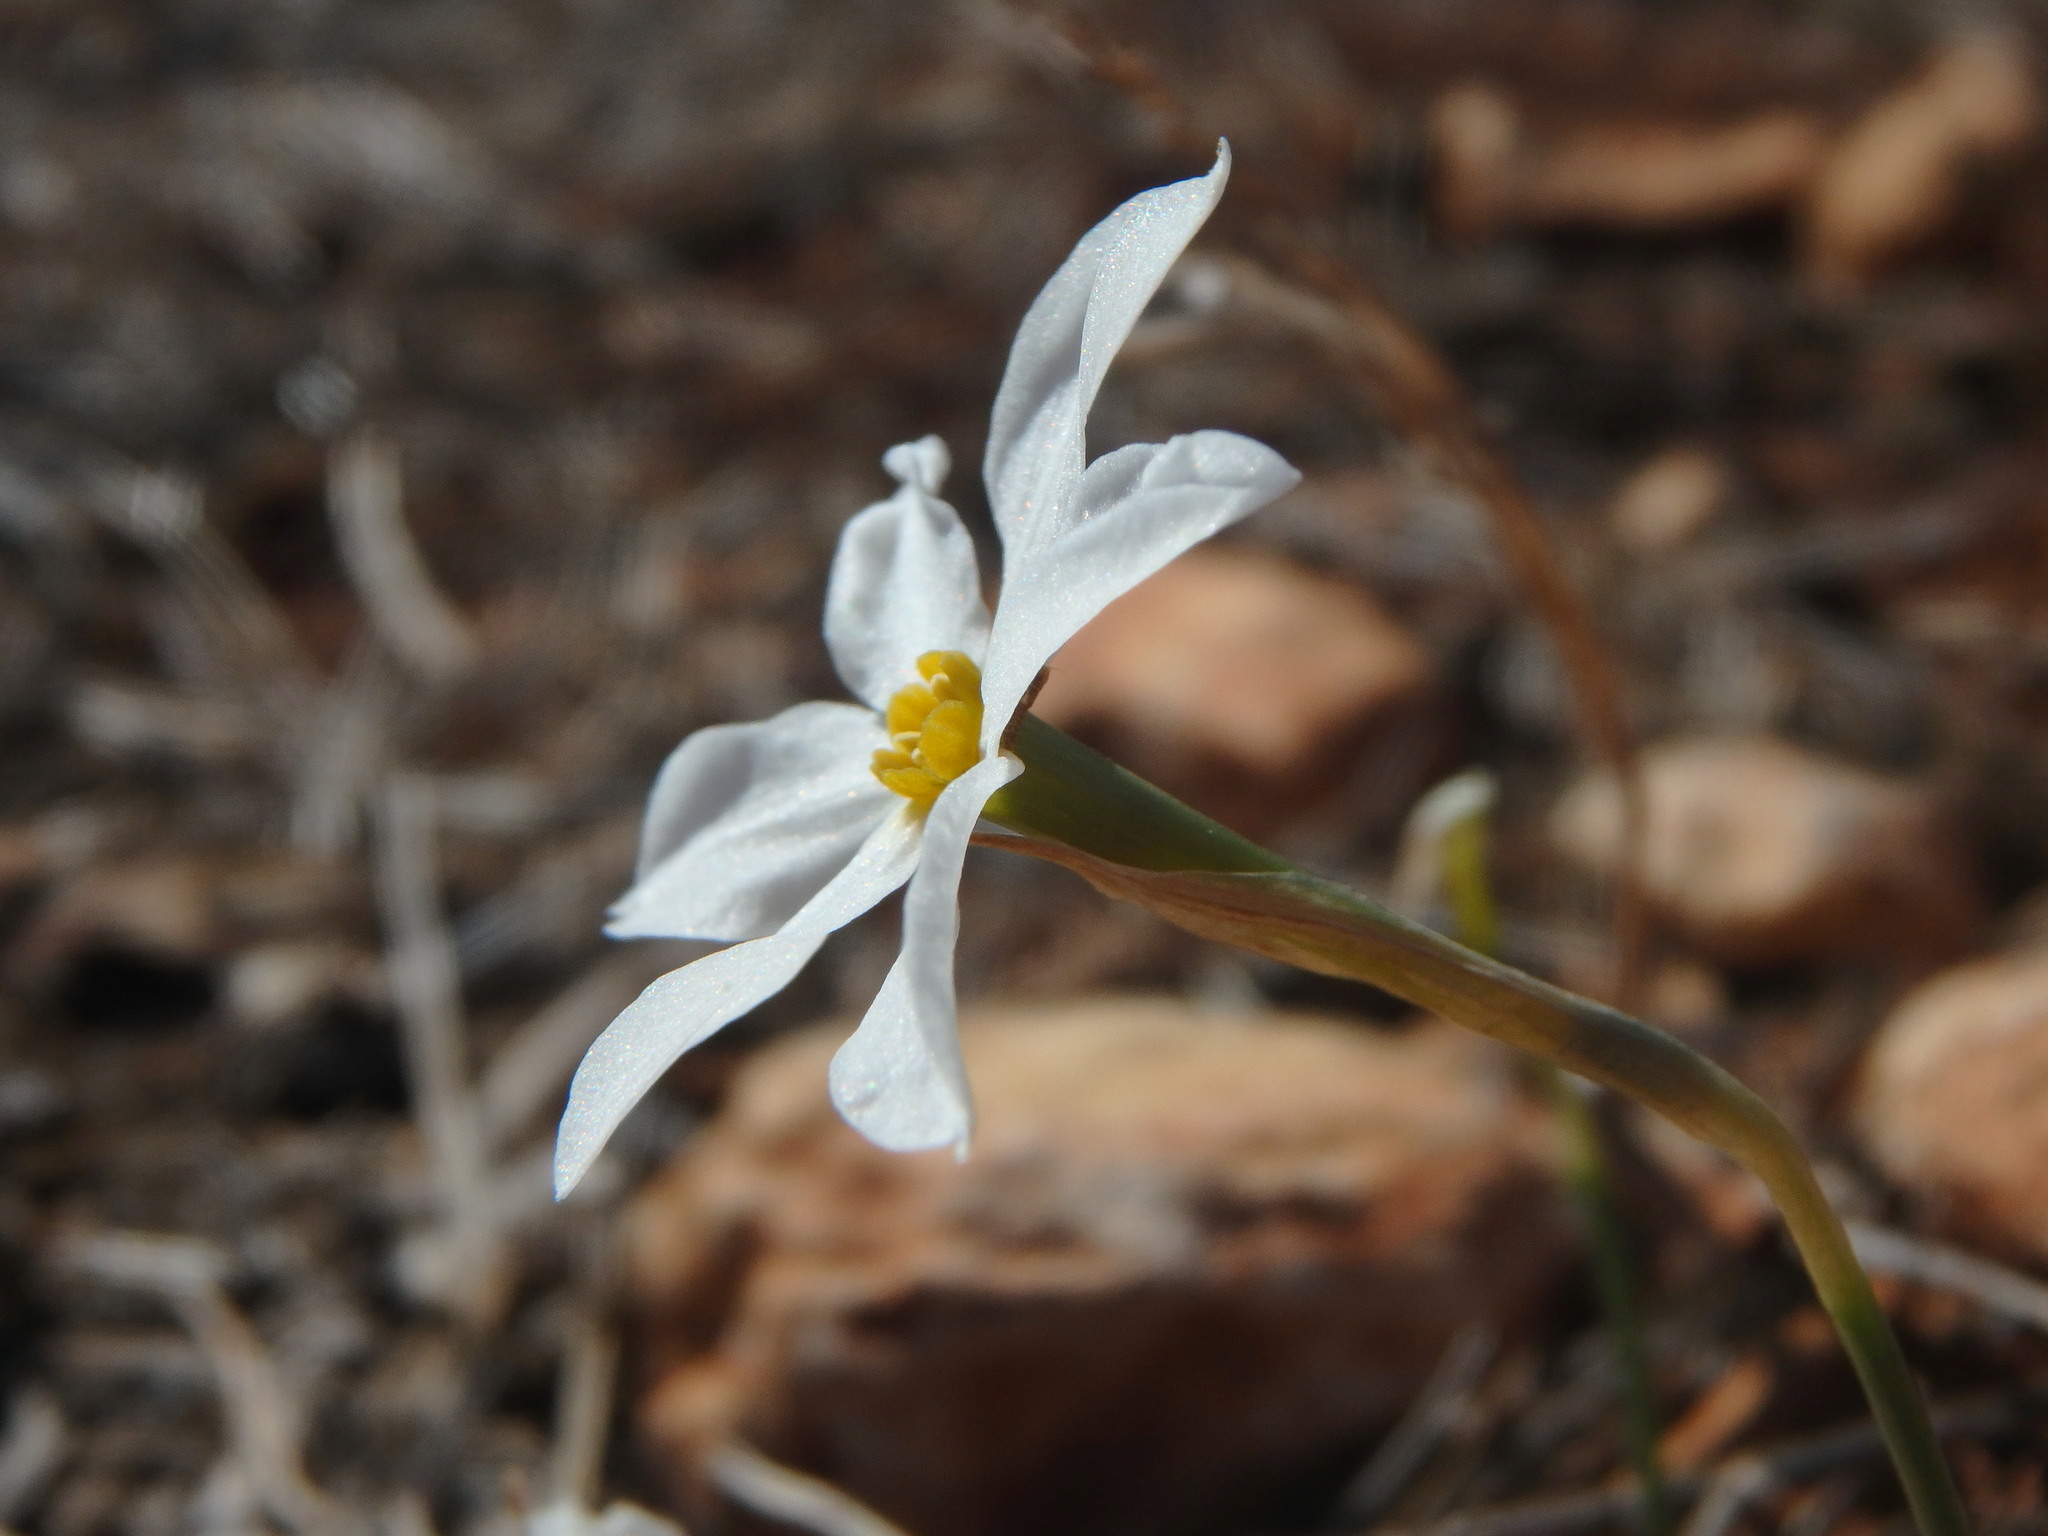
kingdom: Plantae
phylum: Tracheophyta
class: Liliopsida
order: Asparagales
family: Amaryllidaceae
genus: Narcissus
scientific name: Narcissus deficiens
